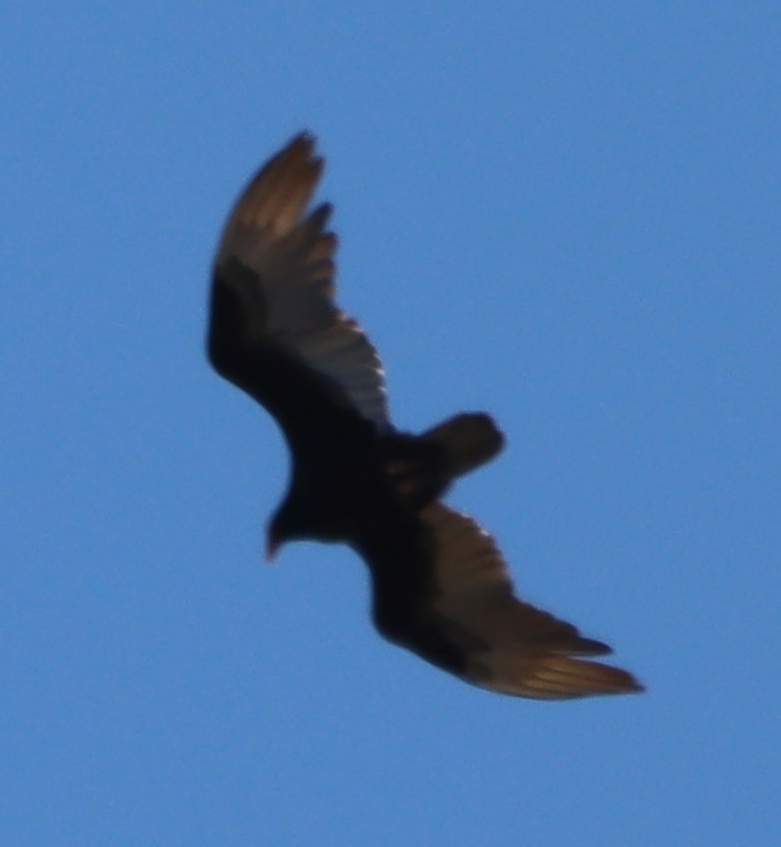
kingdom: Animalia
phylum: Chordata
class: Aves
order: Accipitriformes
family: Cathartidae
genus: Cathartes
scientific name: Cathartes aura
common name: Turkey vulture
